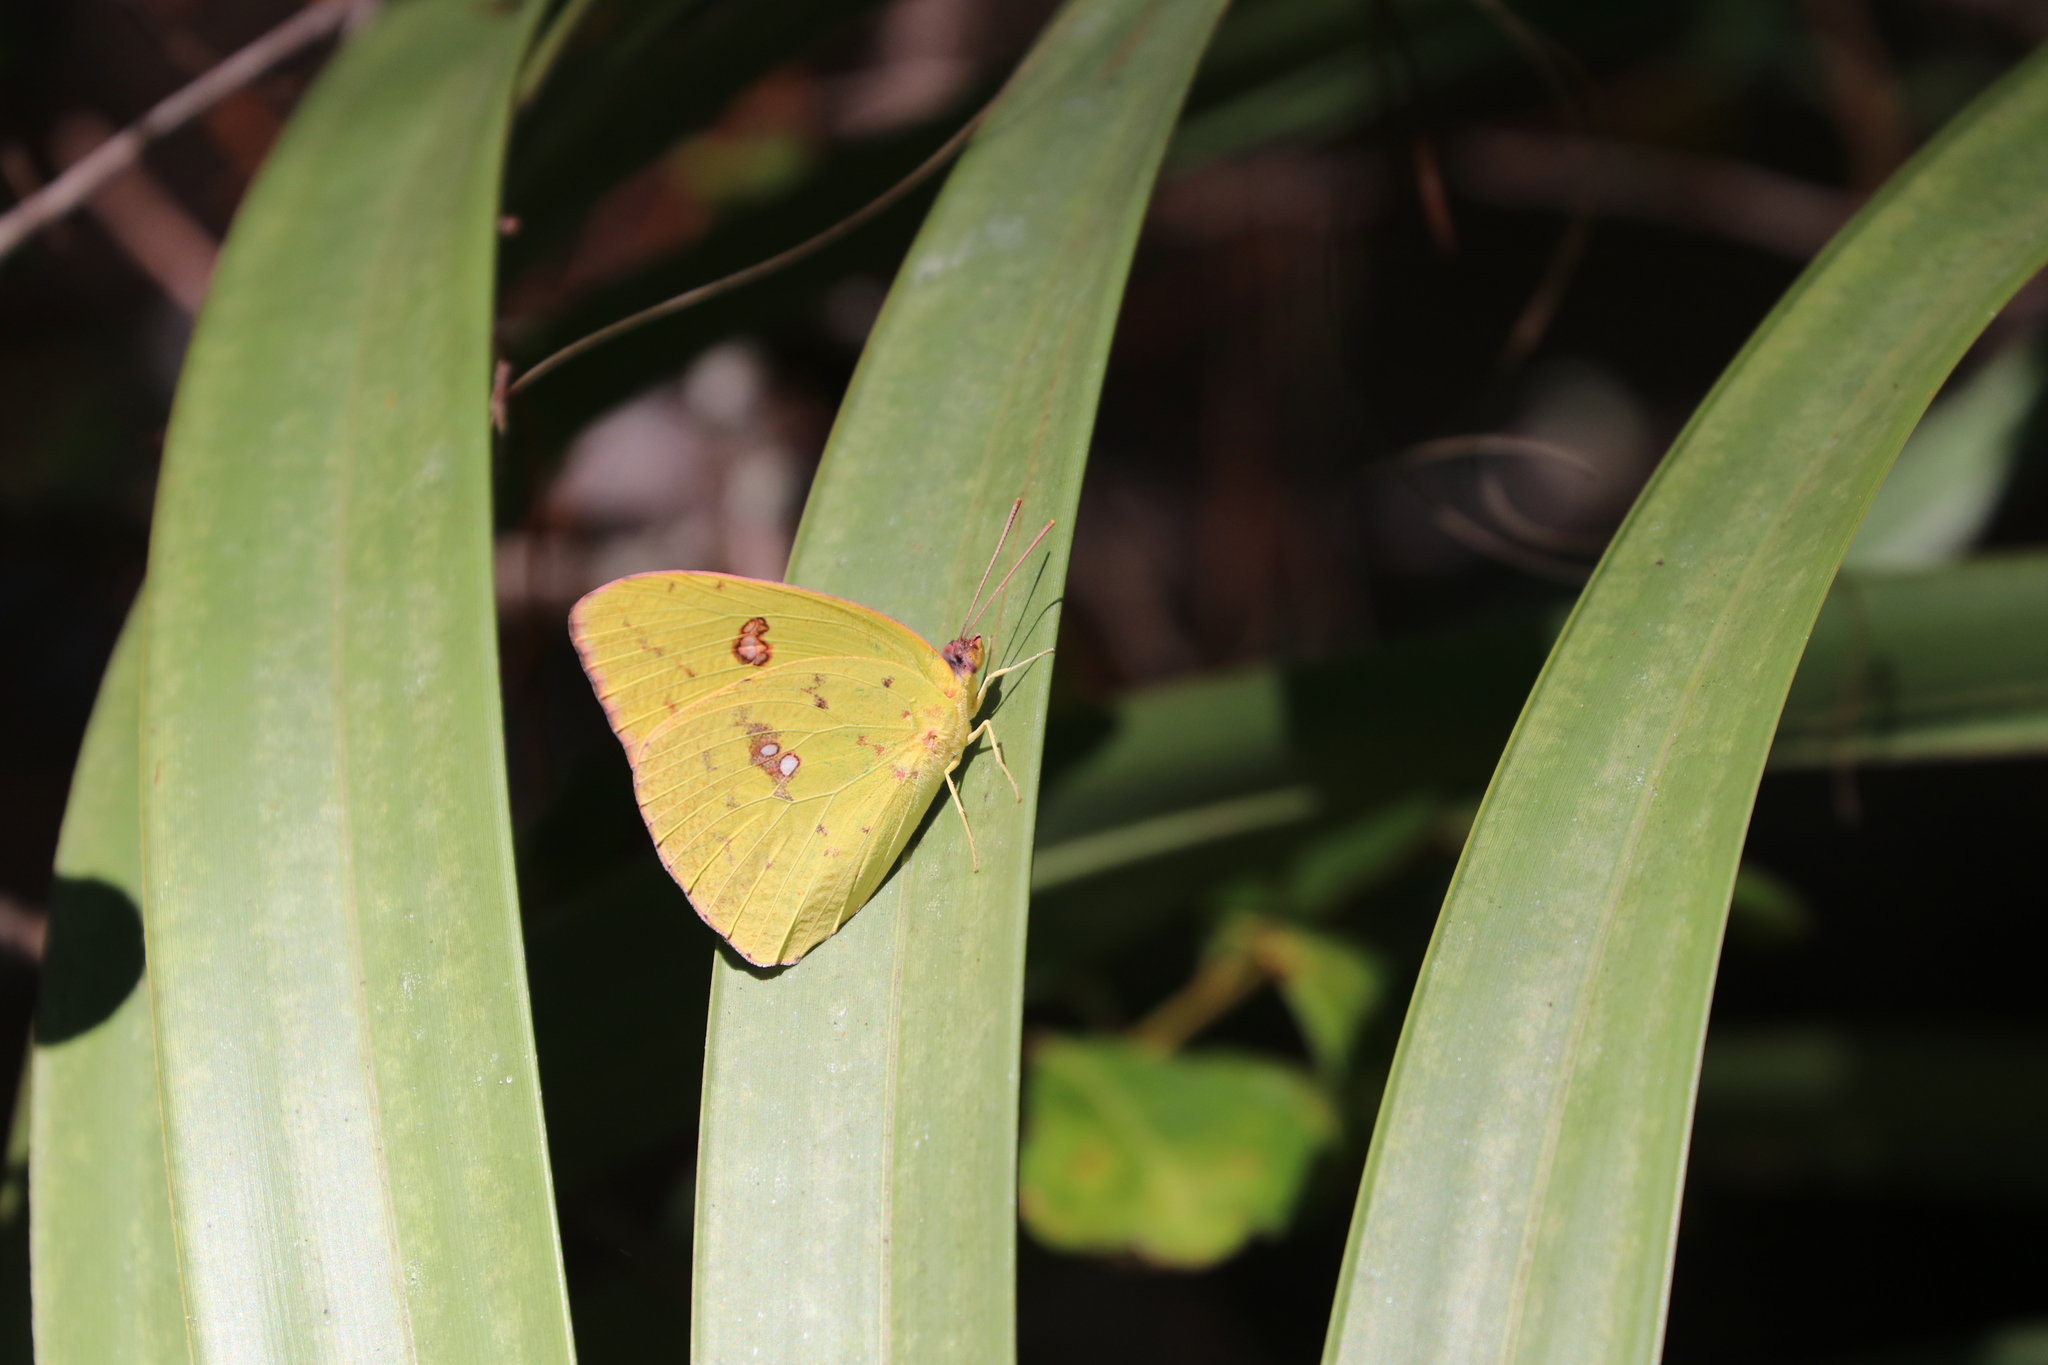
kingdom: Animalia
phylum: Arthropoda
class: Insecta
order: Lepidoptera
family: Pieridae
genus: Phoebis
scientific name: Phoebis sennae
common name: Cloudless sulphur
